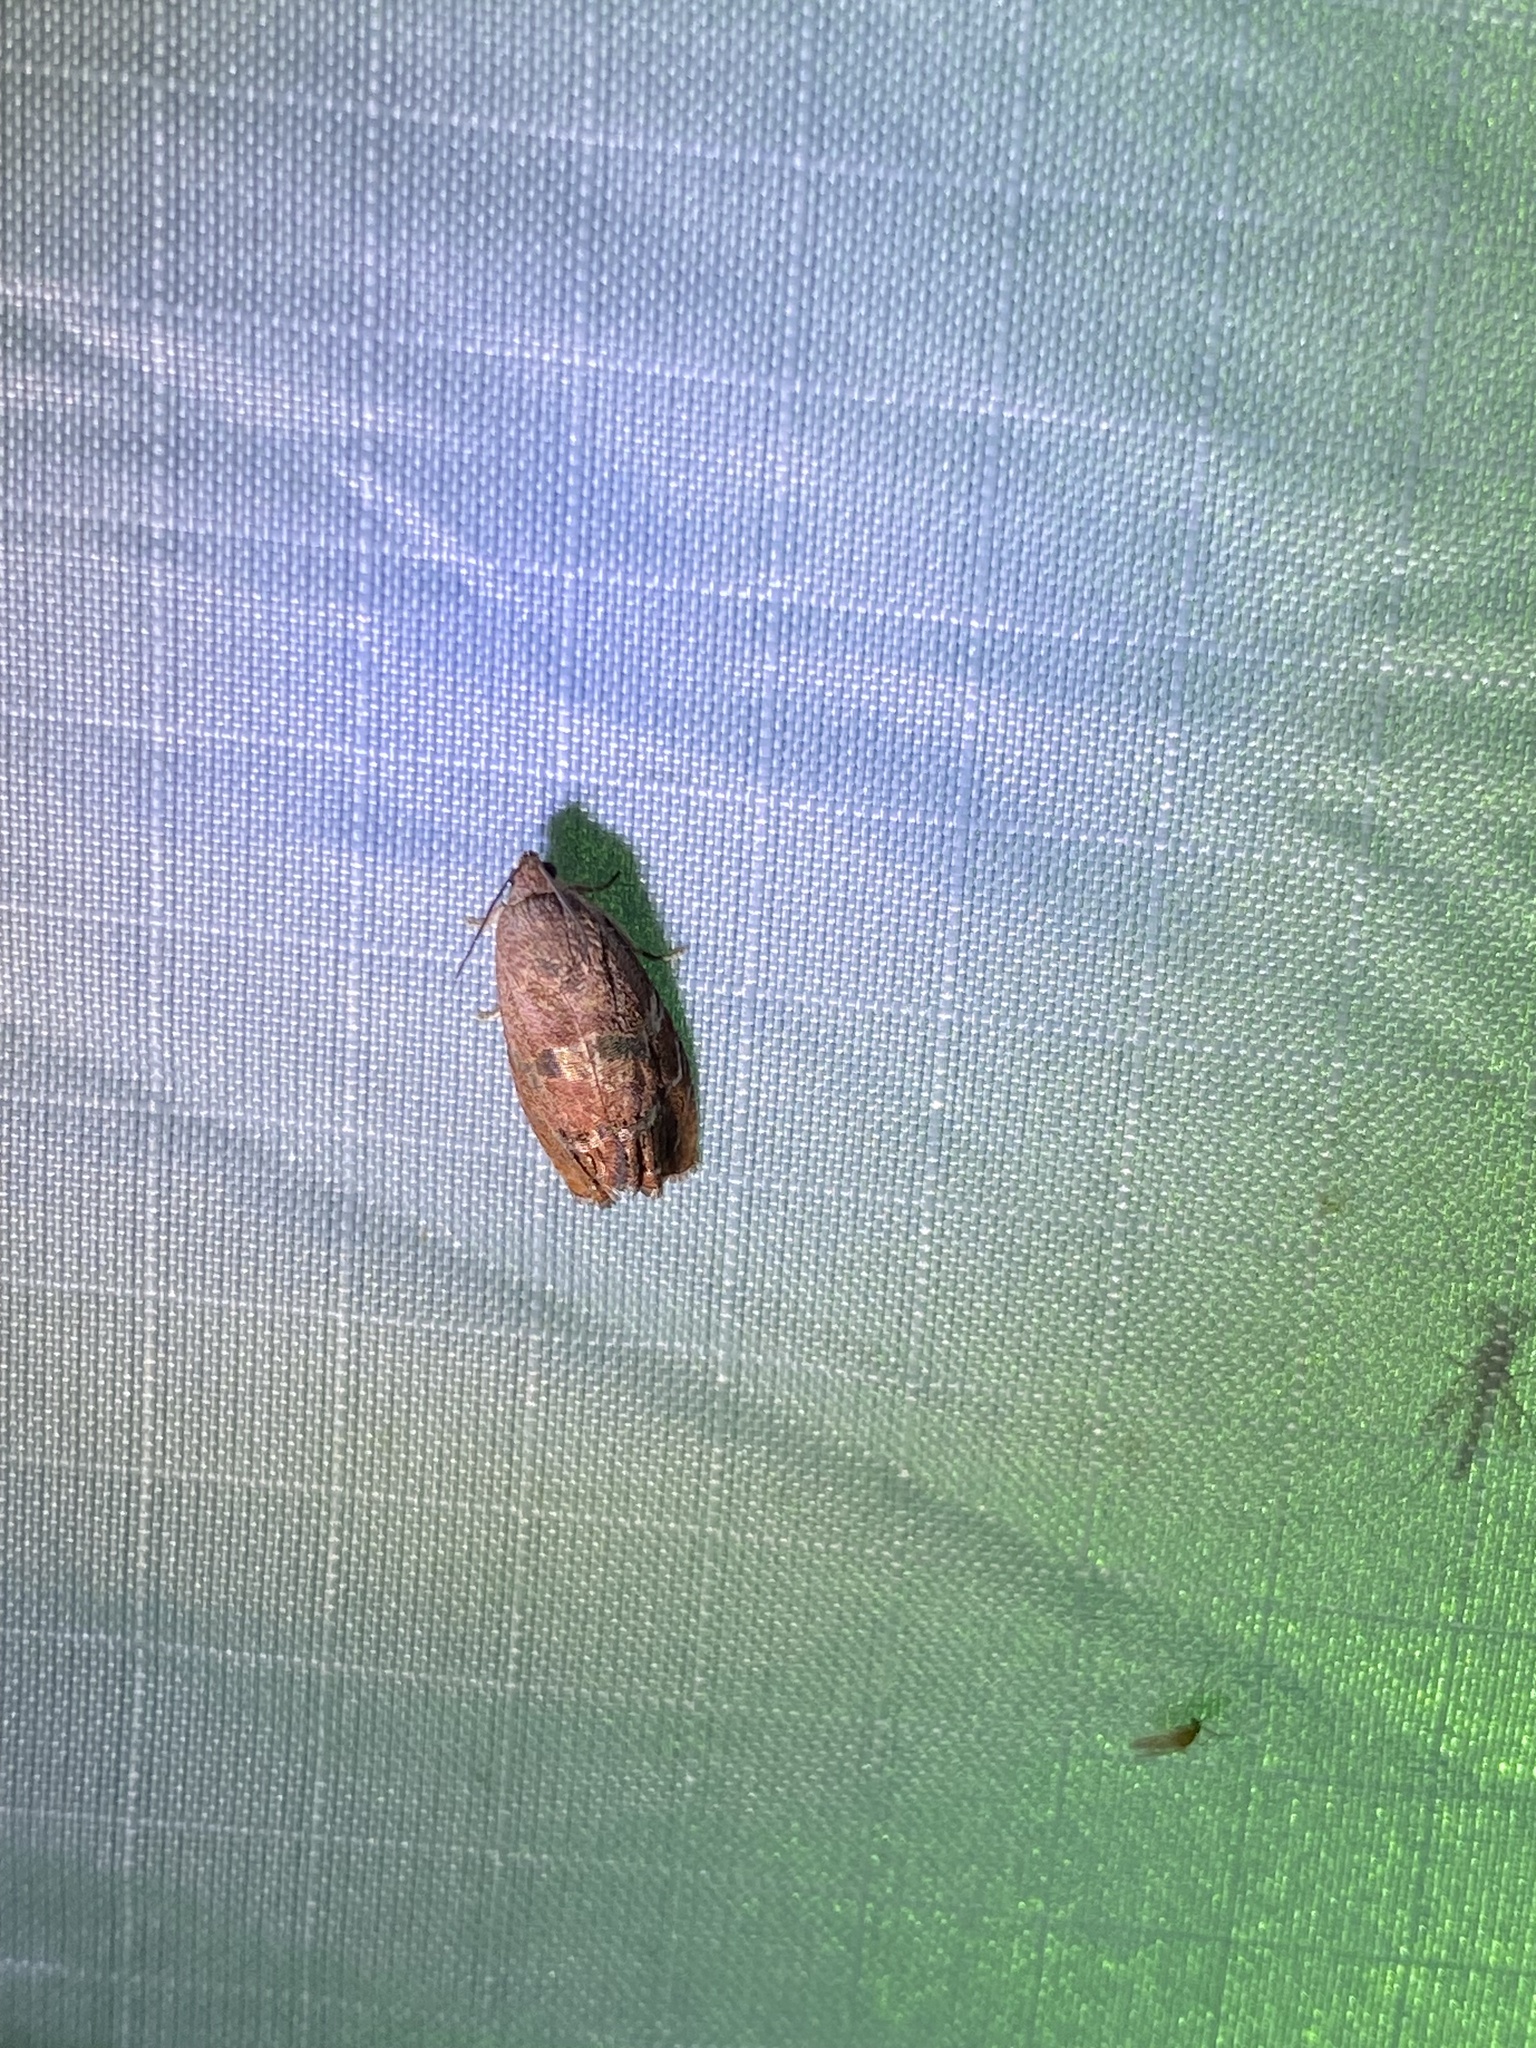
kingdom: Animalia
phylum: Arthropoda
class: Insecta
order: Lepidoptera
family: Tortricidae
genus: Cydia
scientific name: Cydia latiferreana
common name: Filbertworm moth
